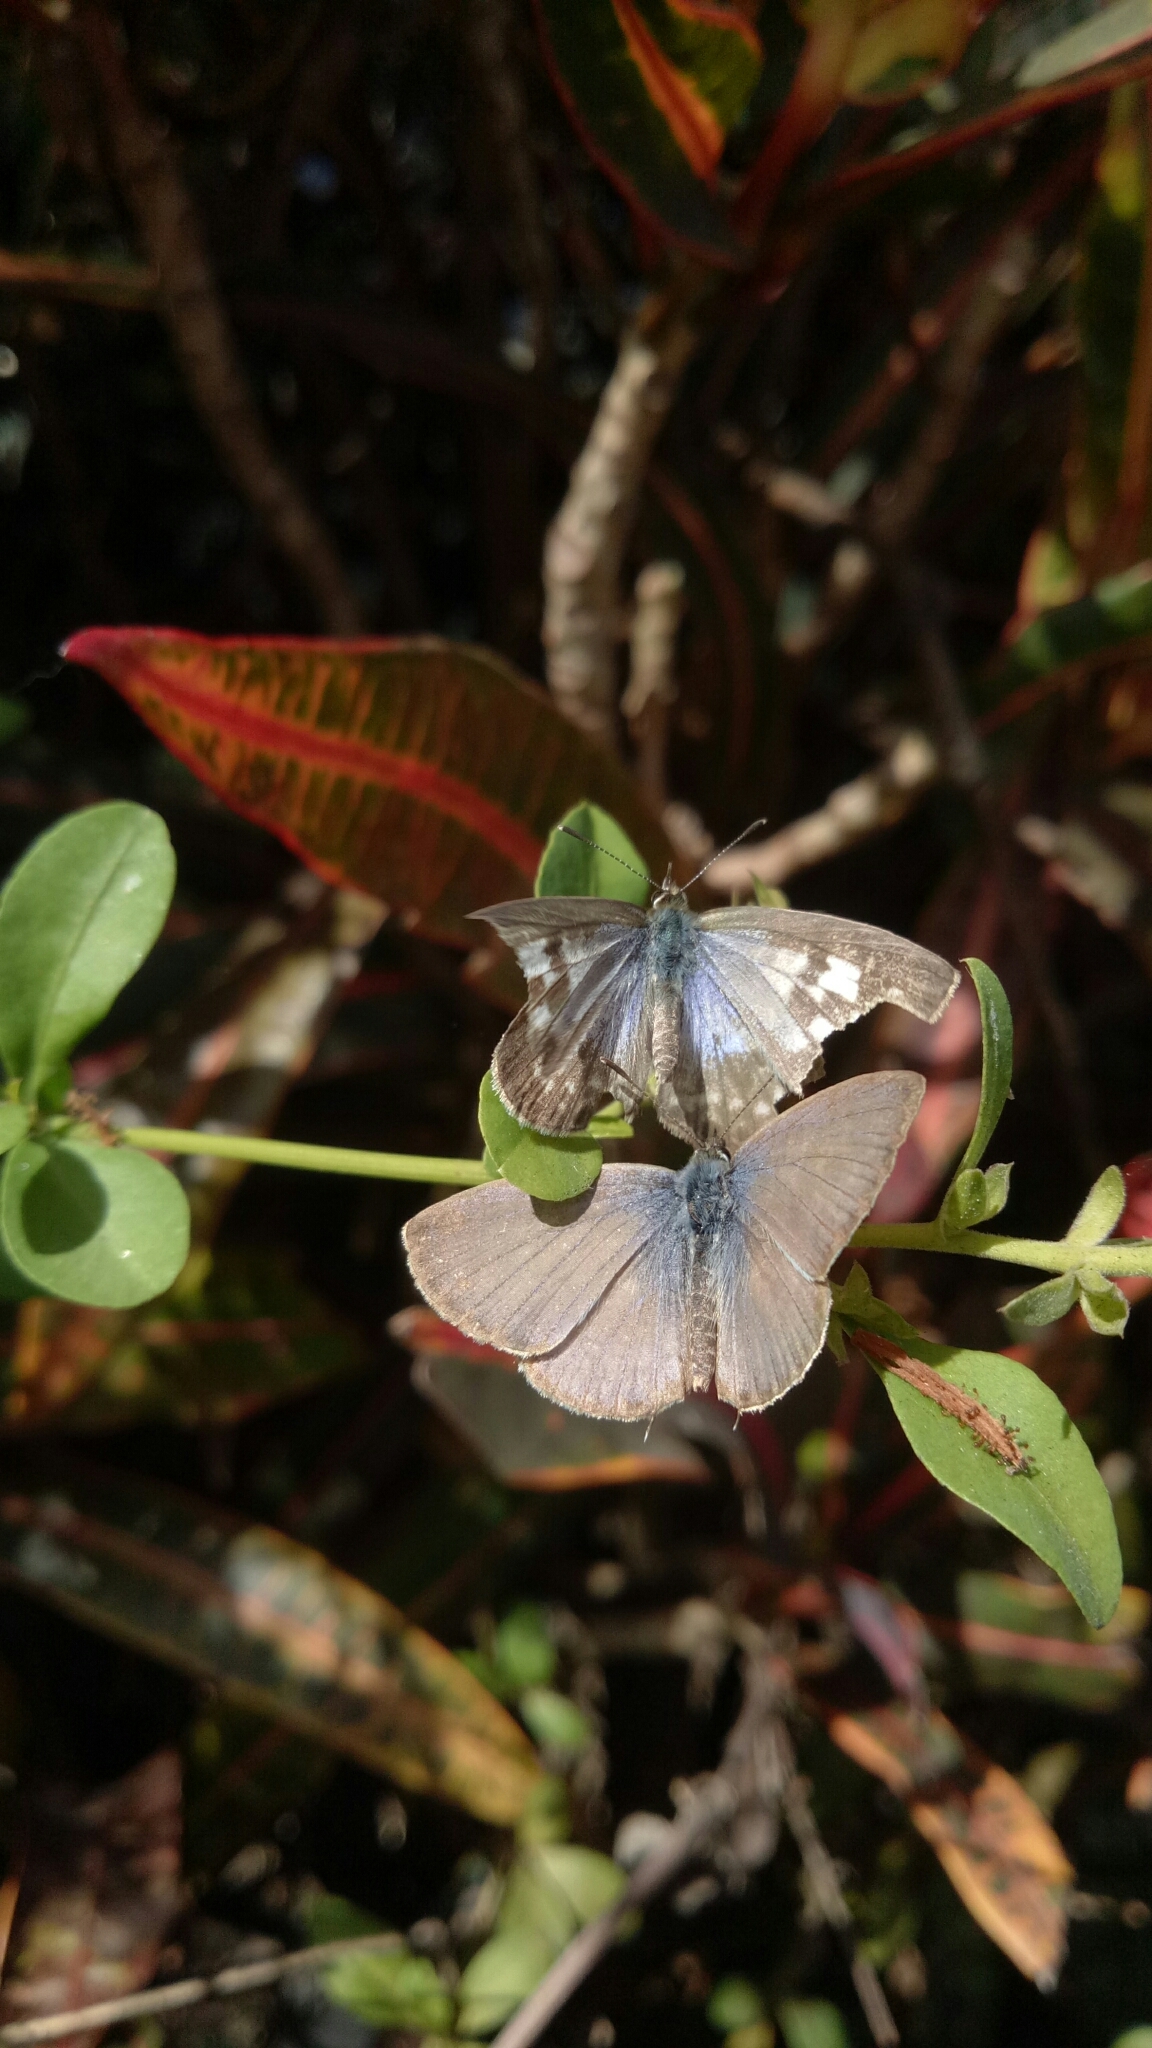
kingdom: Animalia
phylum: Arthropoda
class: Insecta
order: Lepidoptera
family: Lycaenidae
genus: Leptotes
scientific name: Leptotes plinius
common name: Zebra blue
